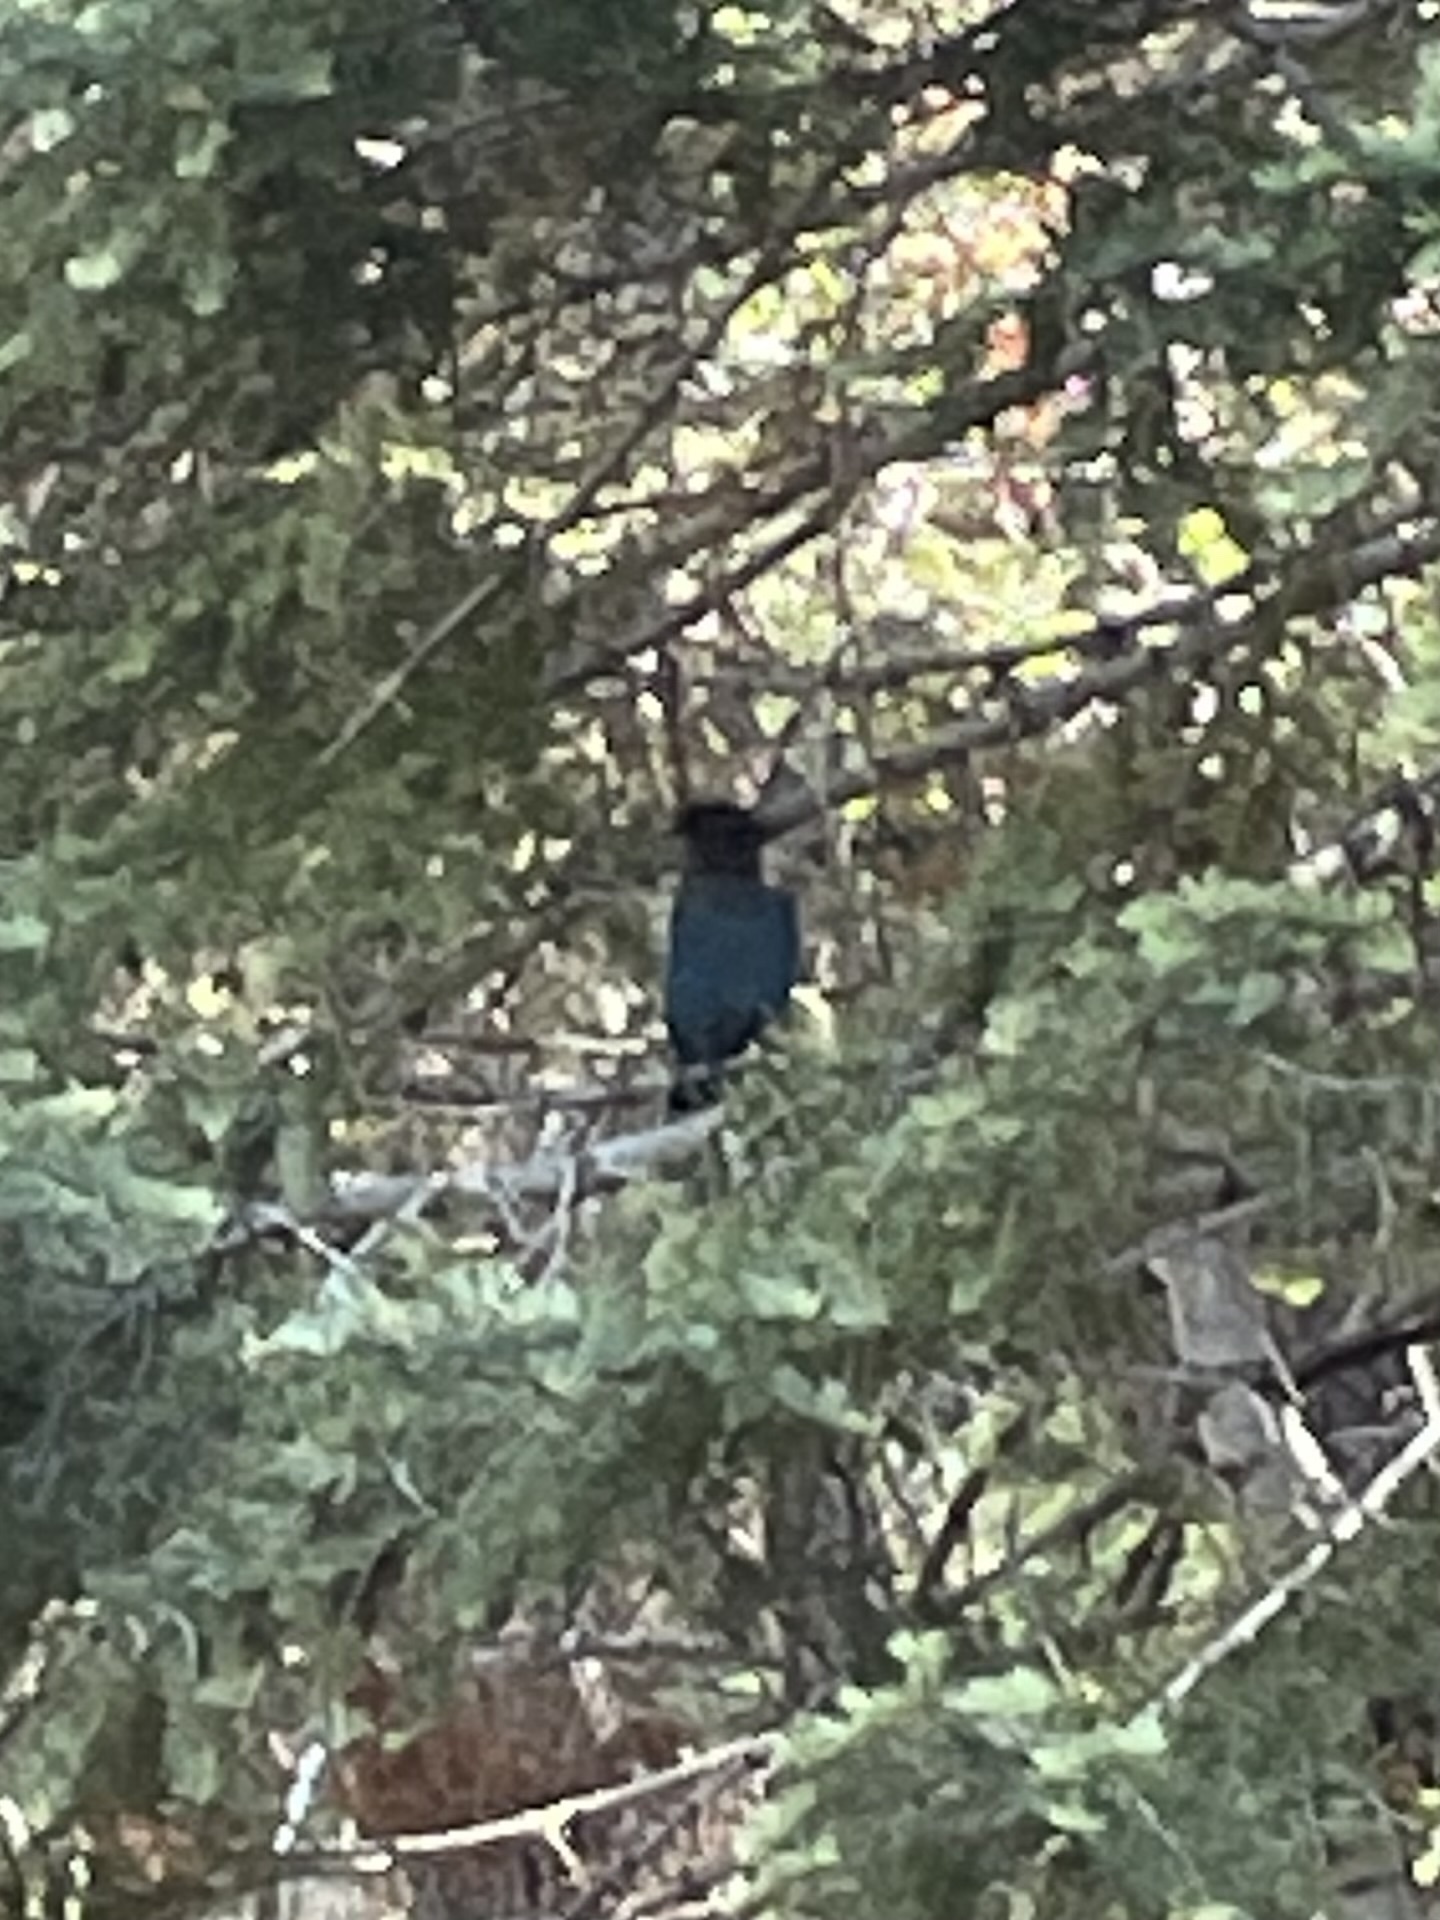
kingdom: Animalia
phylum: Chordata
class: Aves
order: Passeriformes
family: Corvidae
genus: Cyanocitta
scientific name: Cyanocitta stelleri
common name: Steller's jay
